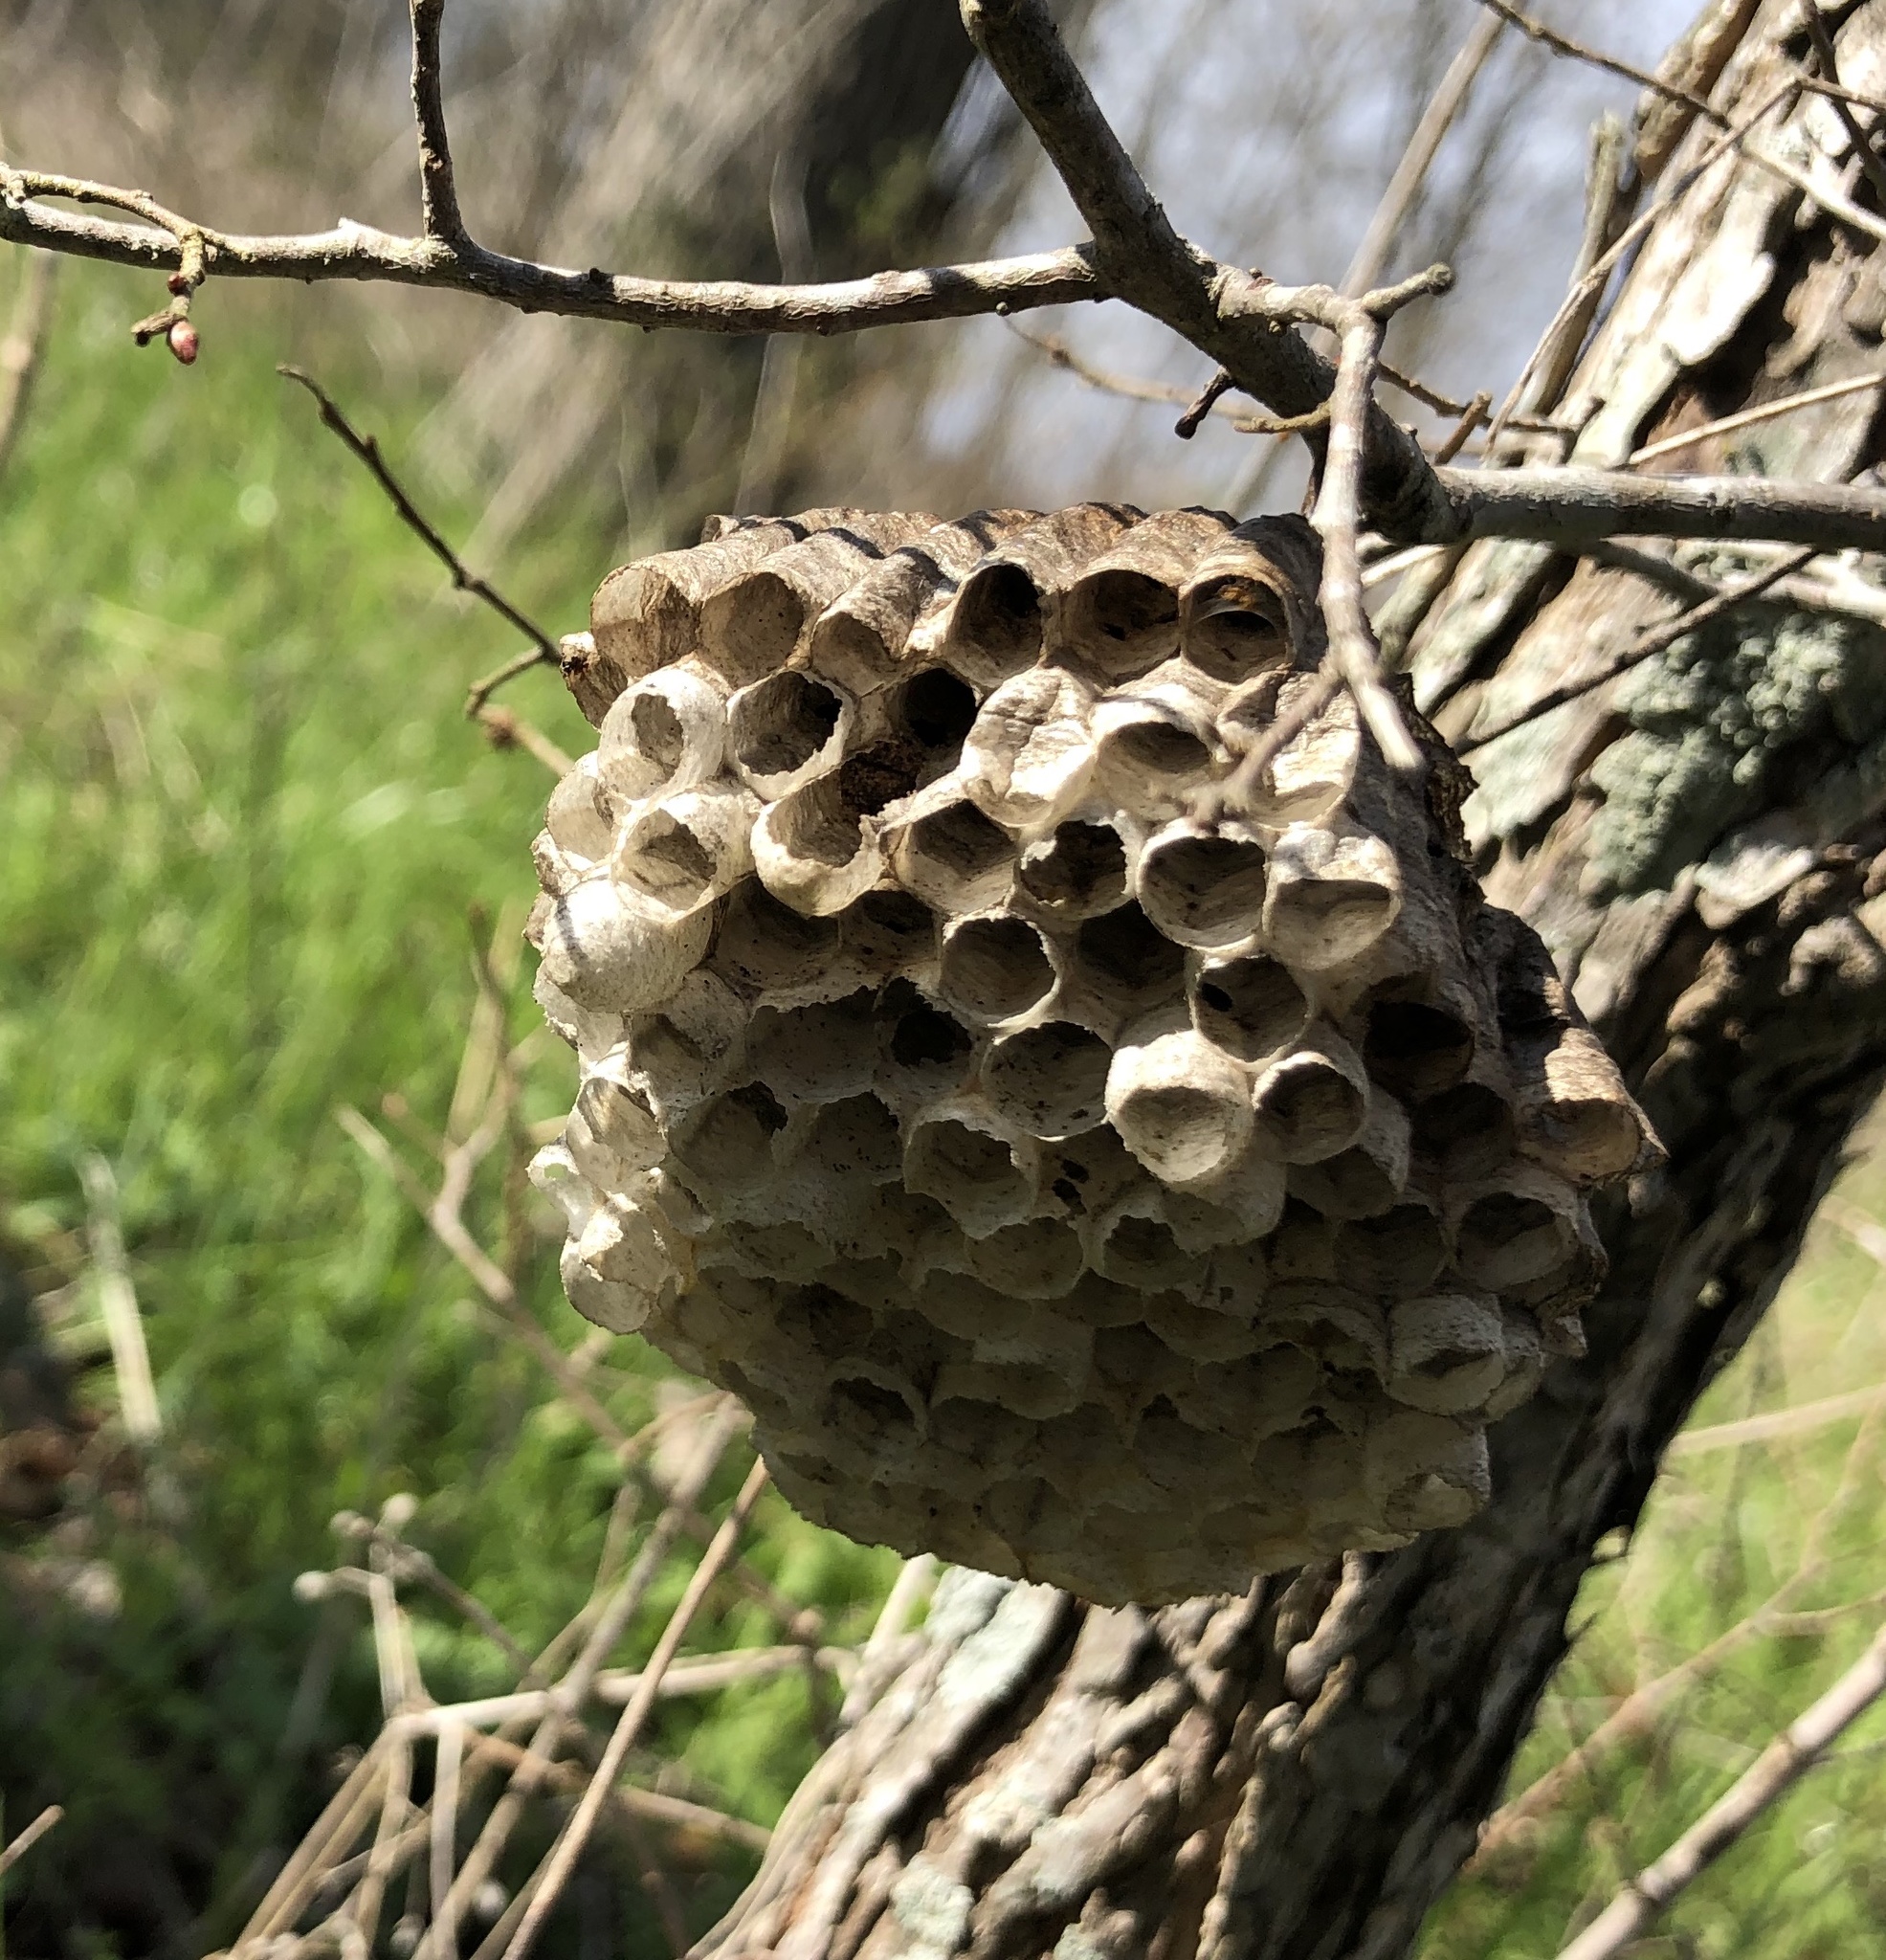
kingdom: Animalia
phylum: Arthropoda
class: Insecta
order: Hymenoptera
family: Eumenidae
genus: Polistes
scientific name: Polistes
